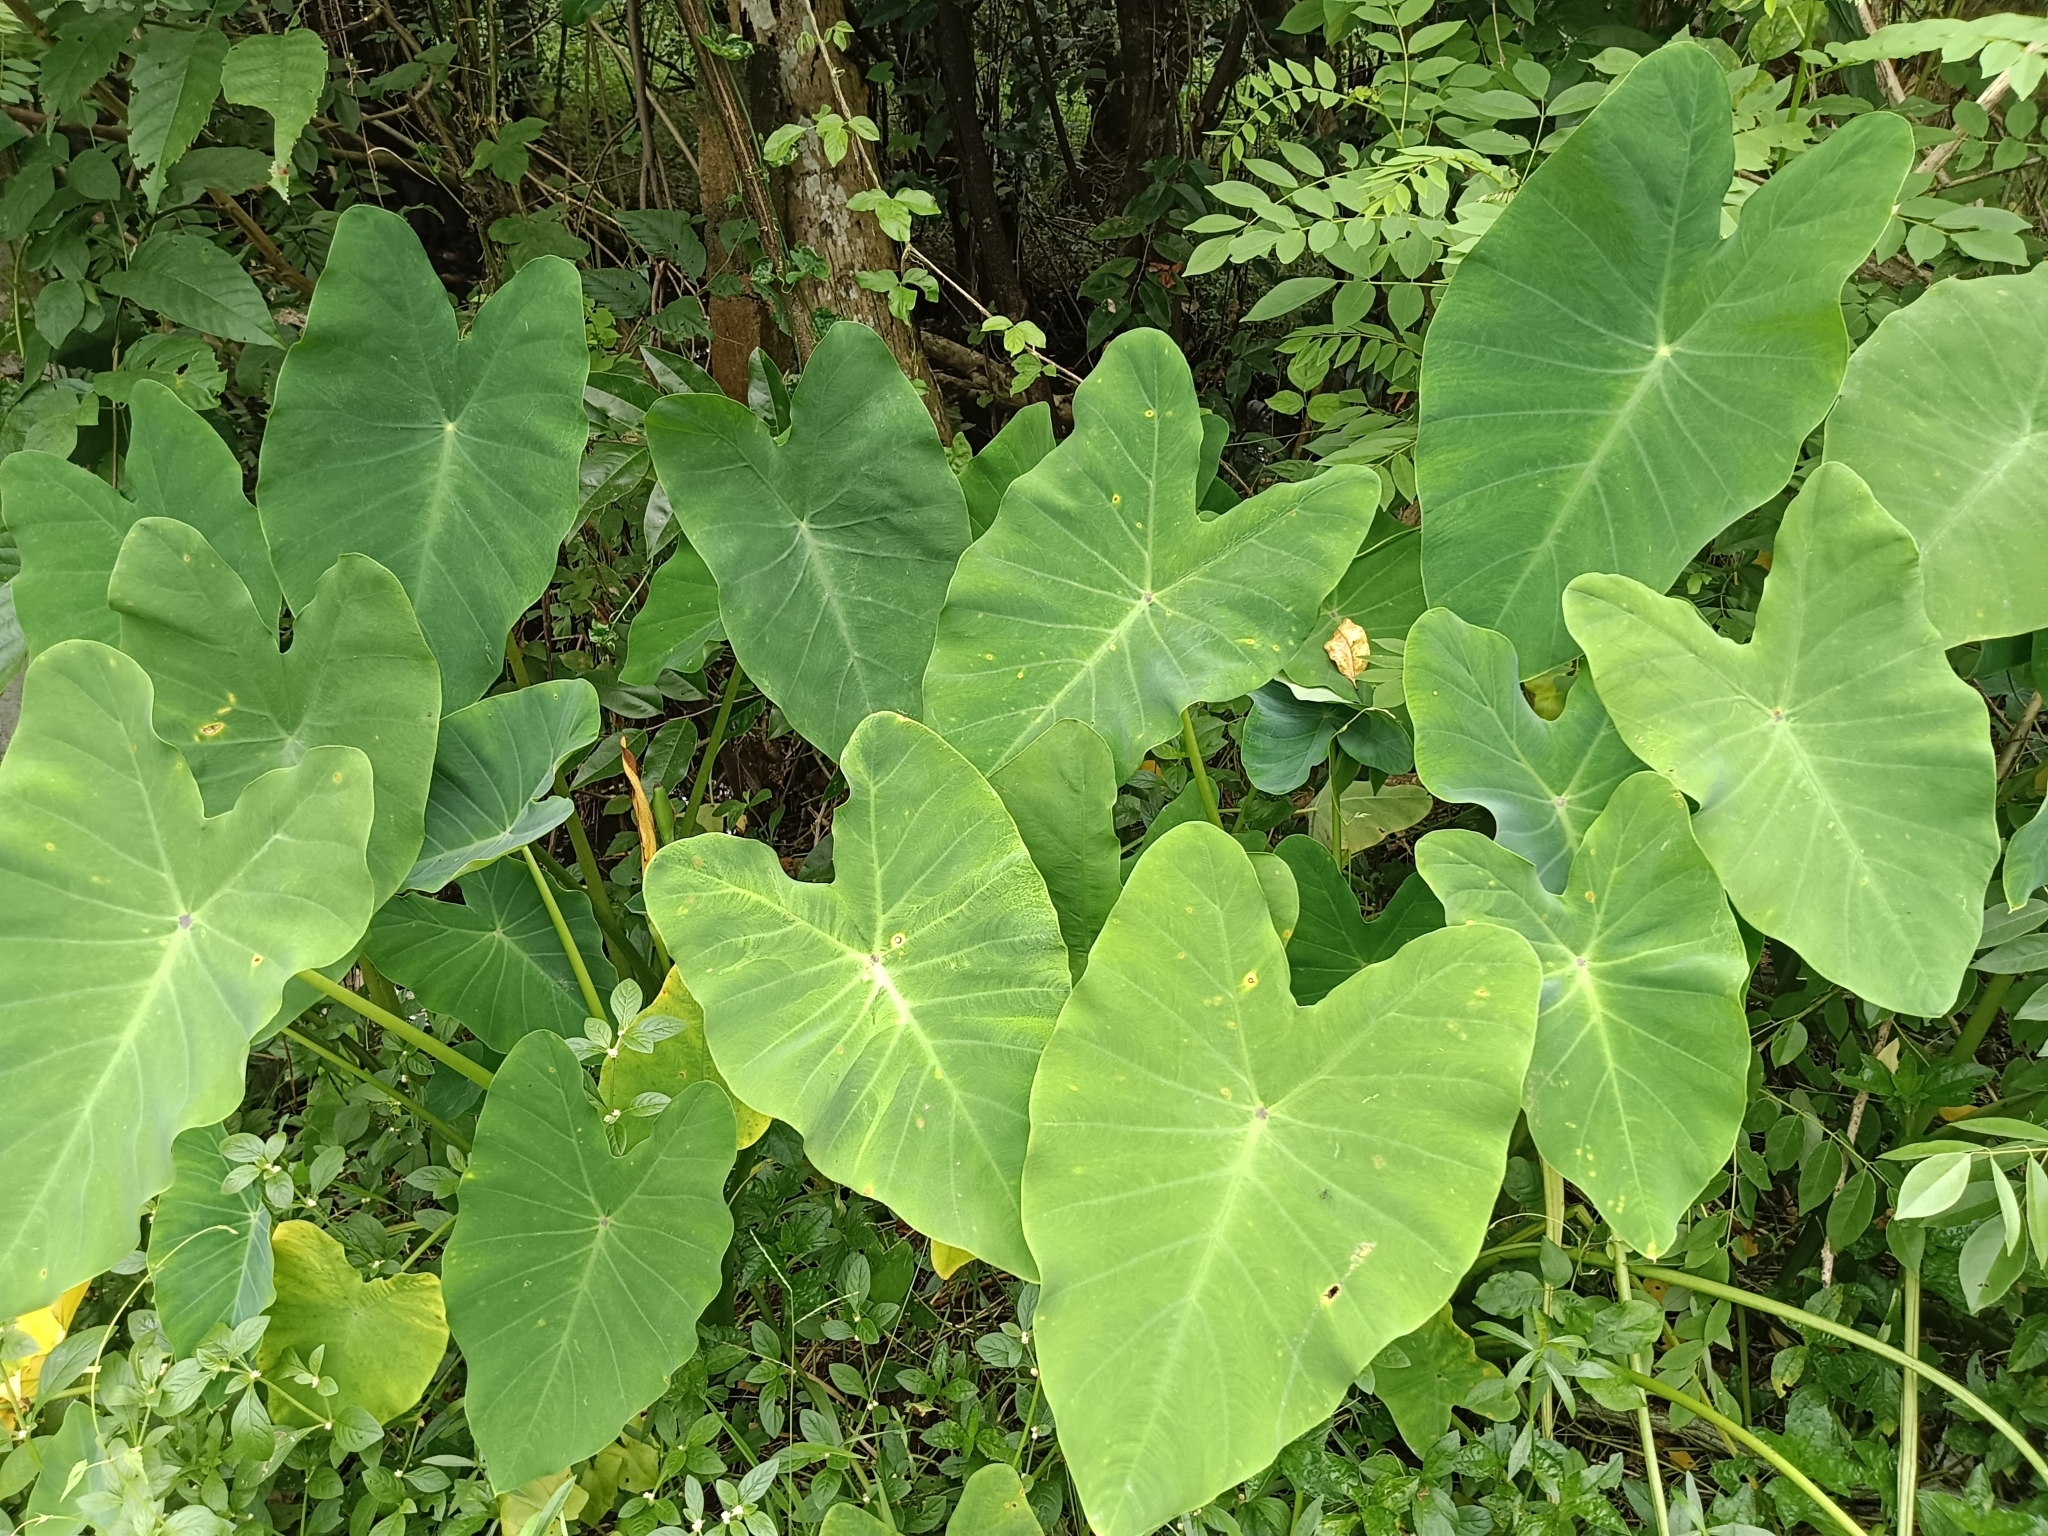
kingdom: Plantae
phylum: Tracheophyta
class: Liliopsida
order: Alismatales
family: Araceae
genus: Colocasia
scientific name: Colocasia esculenta
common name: Taro
